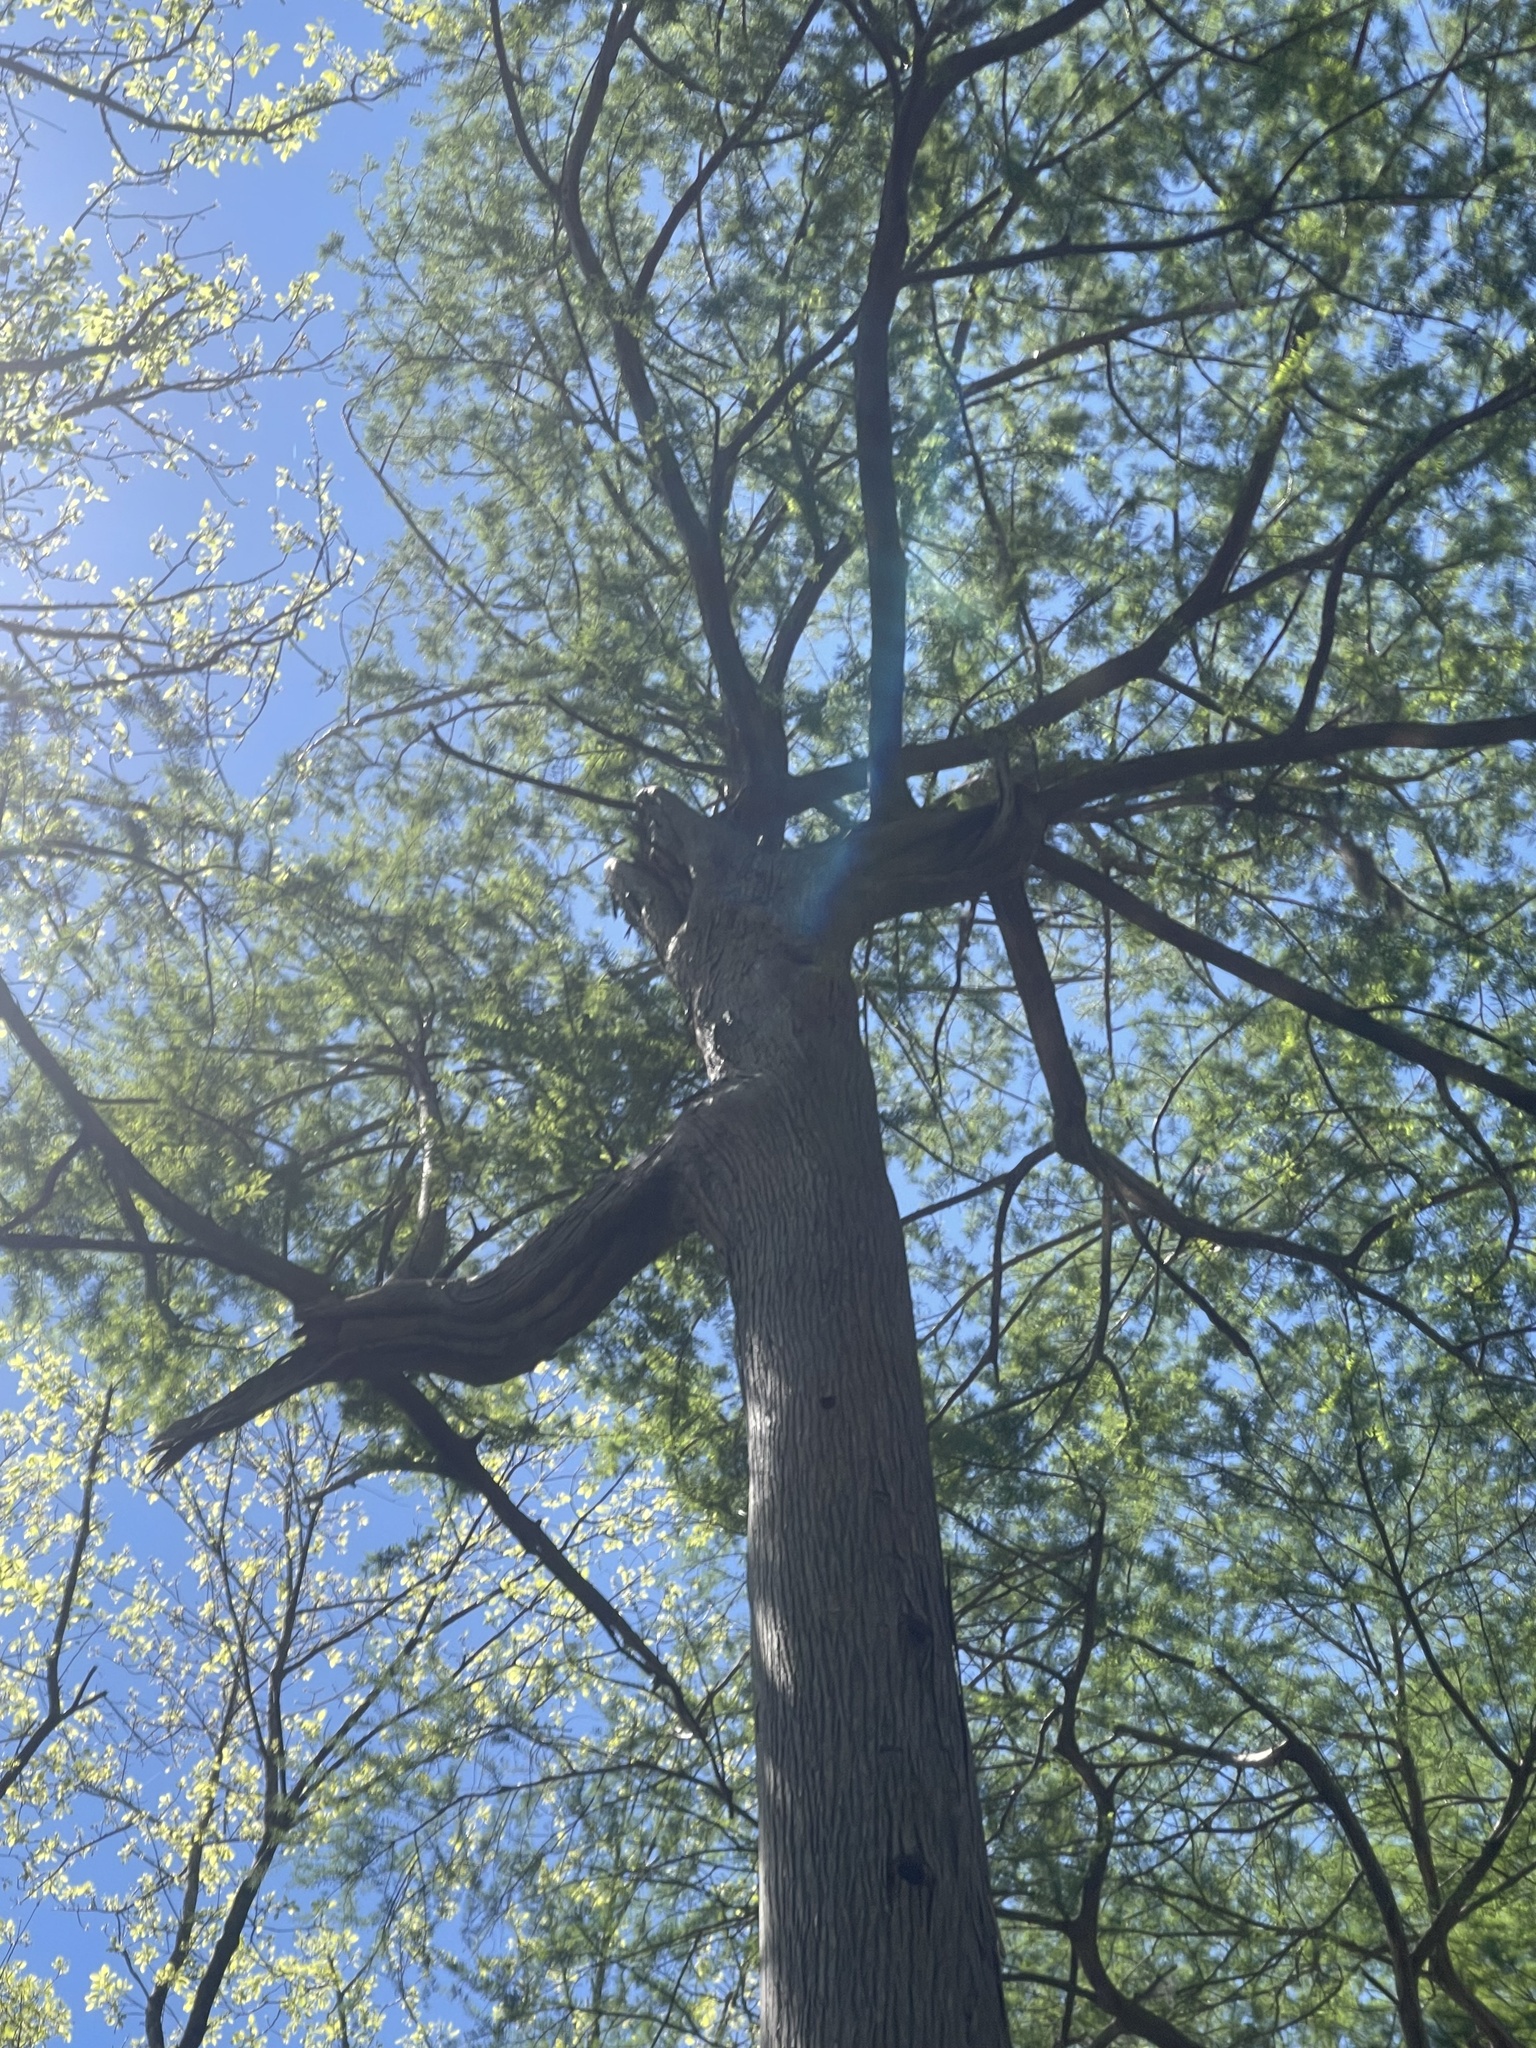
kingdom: Plantae
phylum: Tracheophyta
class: Pinopsida
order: Pinales
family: Cupressaceae
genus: Taxodium
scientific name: Taxodium distichum
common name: Bald cypress
